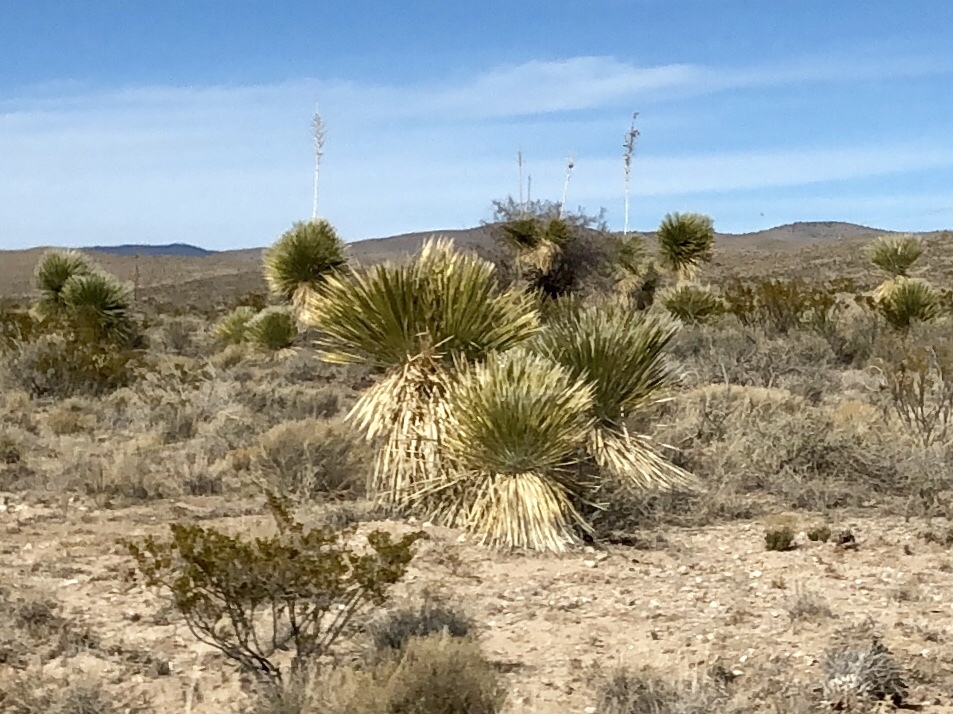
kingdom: Plantae
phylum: Tracheophyta
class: Liliopsida
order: Asparagales
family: Asparagaceae
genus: Yucca
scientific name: Yucca elata
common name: Palmella
